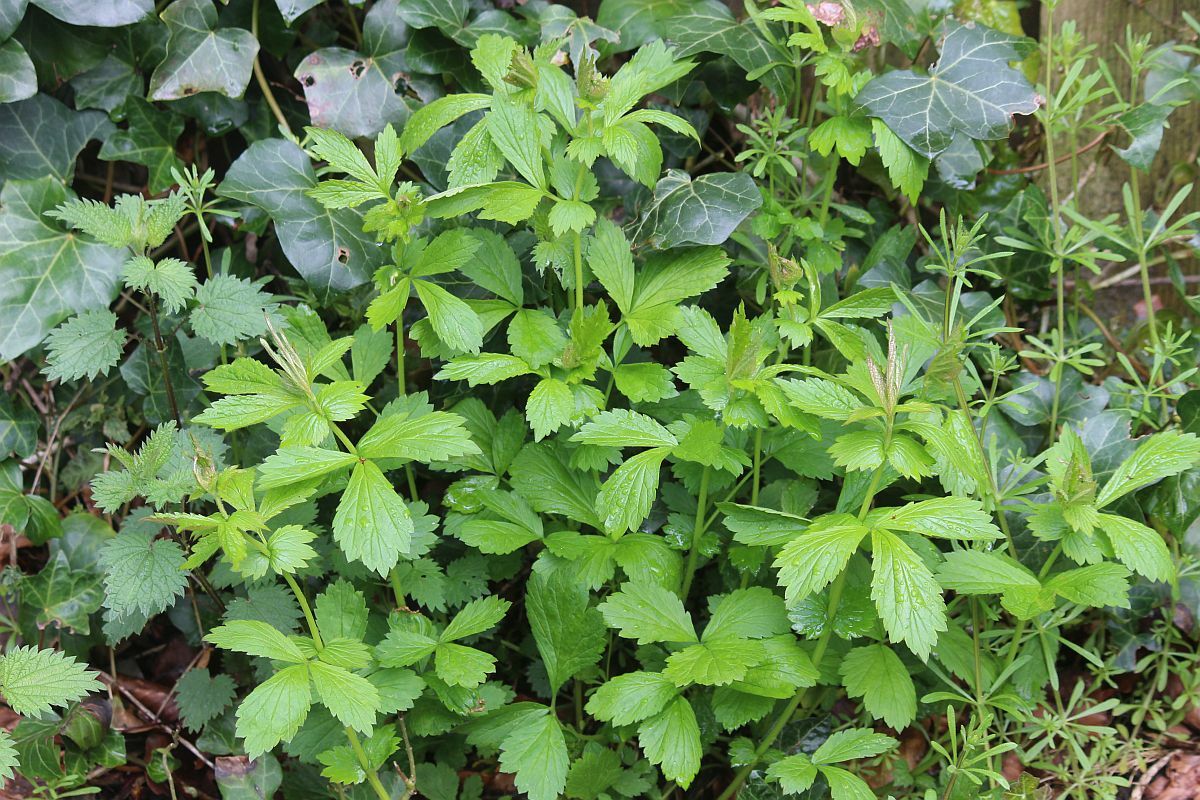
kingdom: Plantae
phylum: Tracheophyta
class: Magnoliopsida
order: Rosales
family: Rosaceae
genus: Geum
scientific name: Geum urbanum
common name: Wood avens
